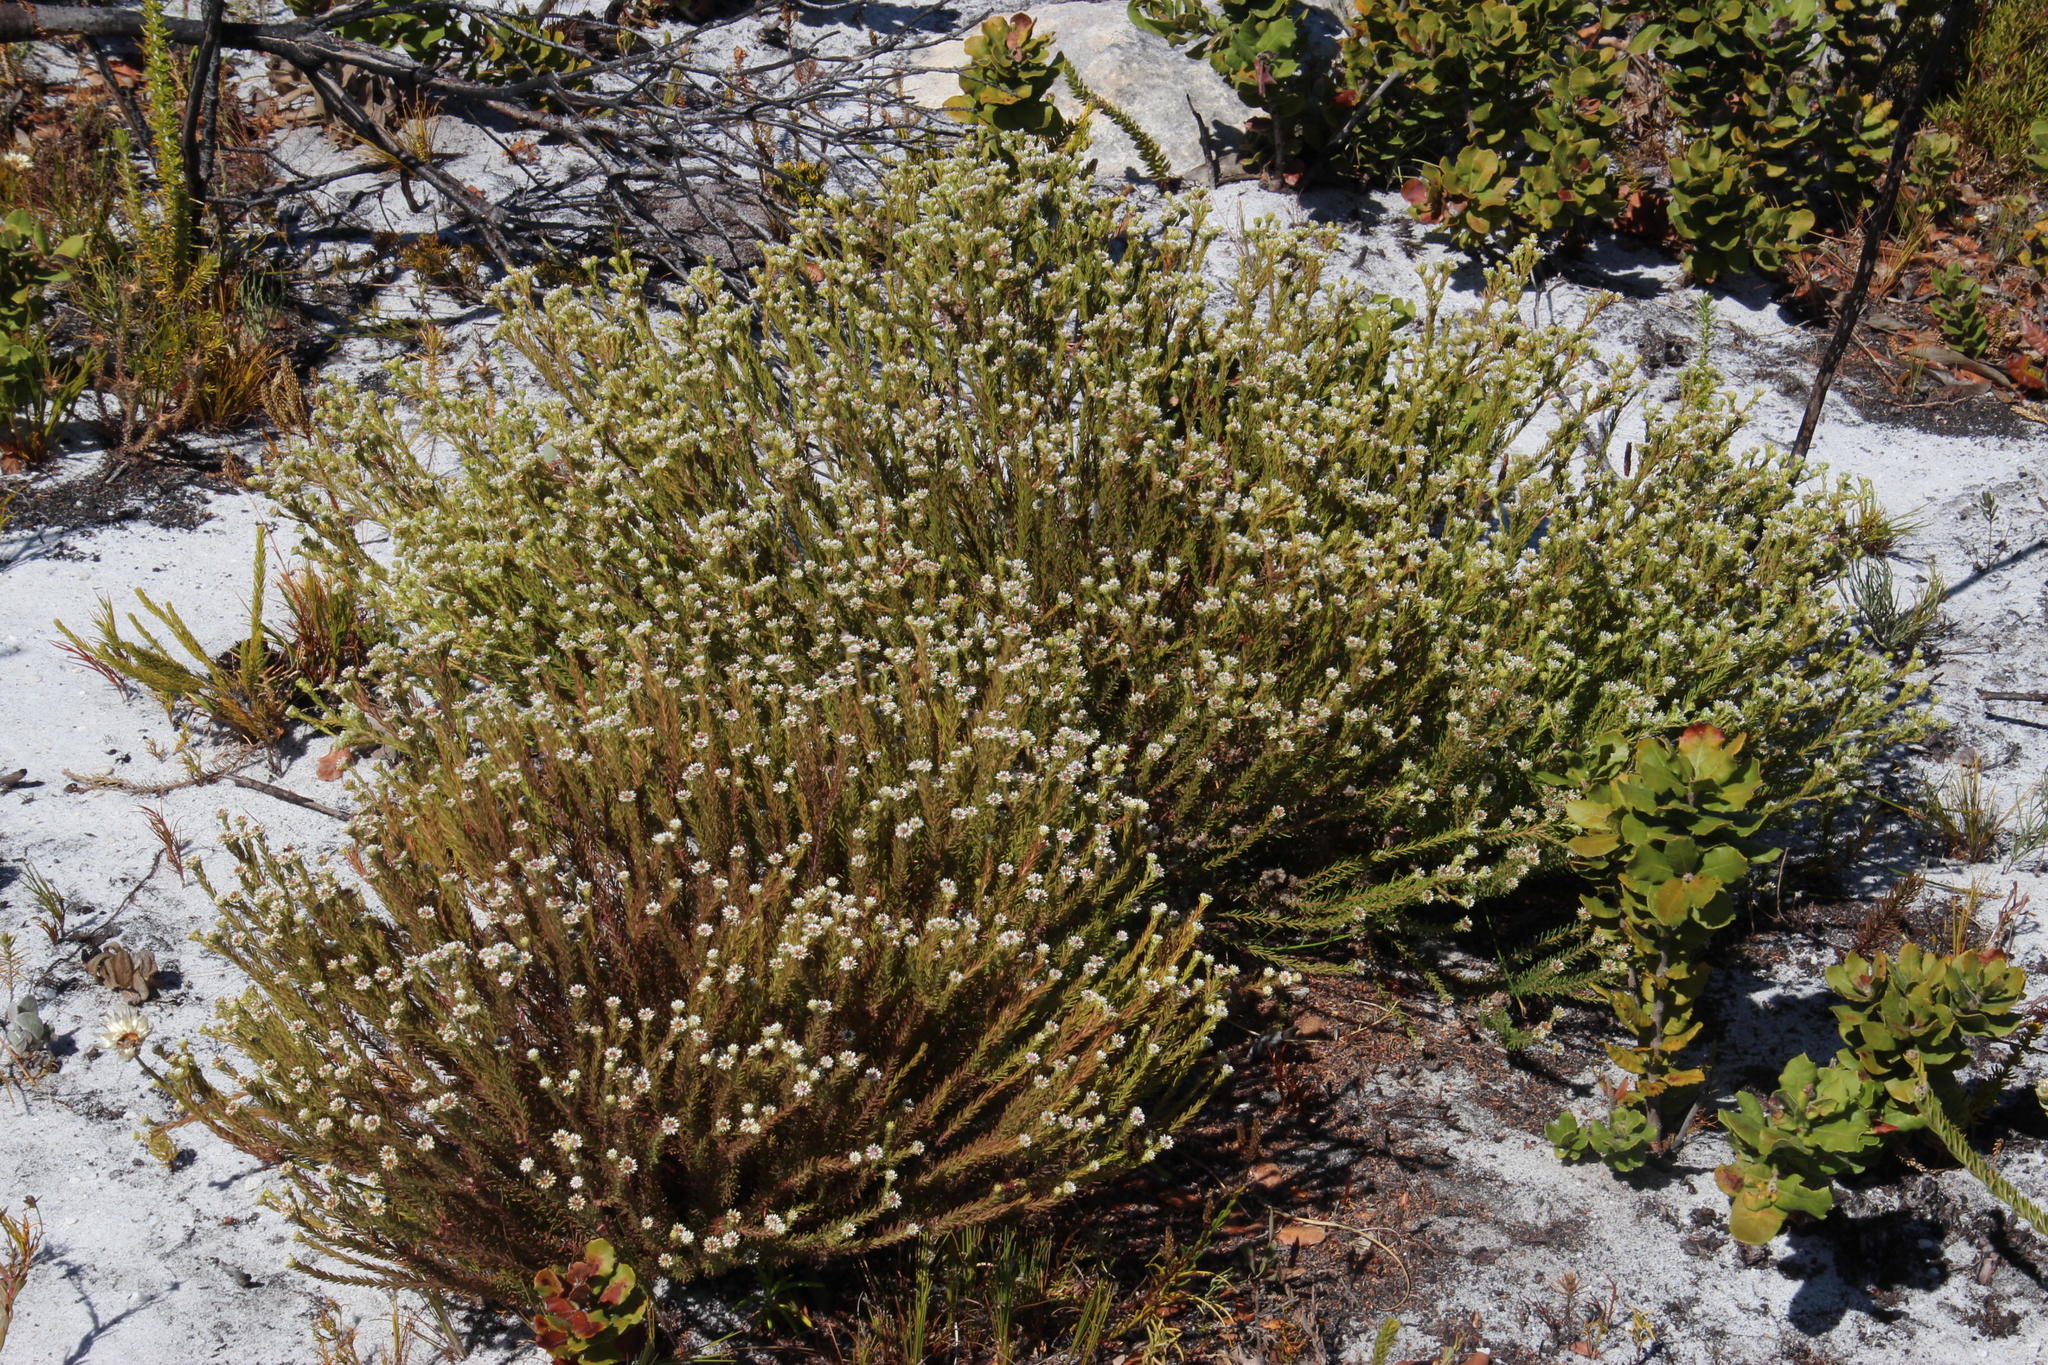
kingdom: Plantae
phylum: Tracheophyta
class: Magnoliopsida
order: Bruniales
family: Bruniaceae
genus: Staavia
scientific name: Staavia radiata
